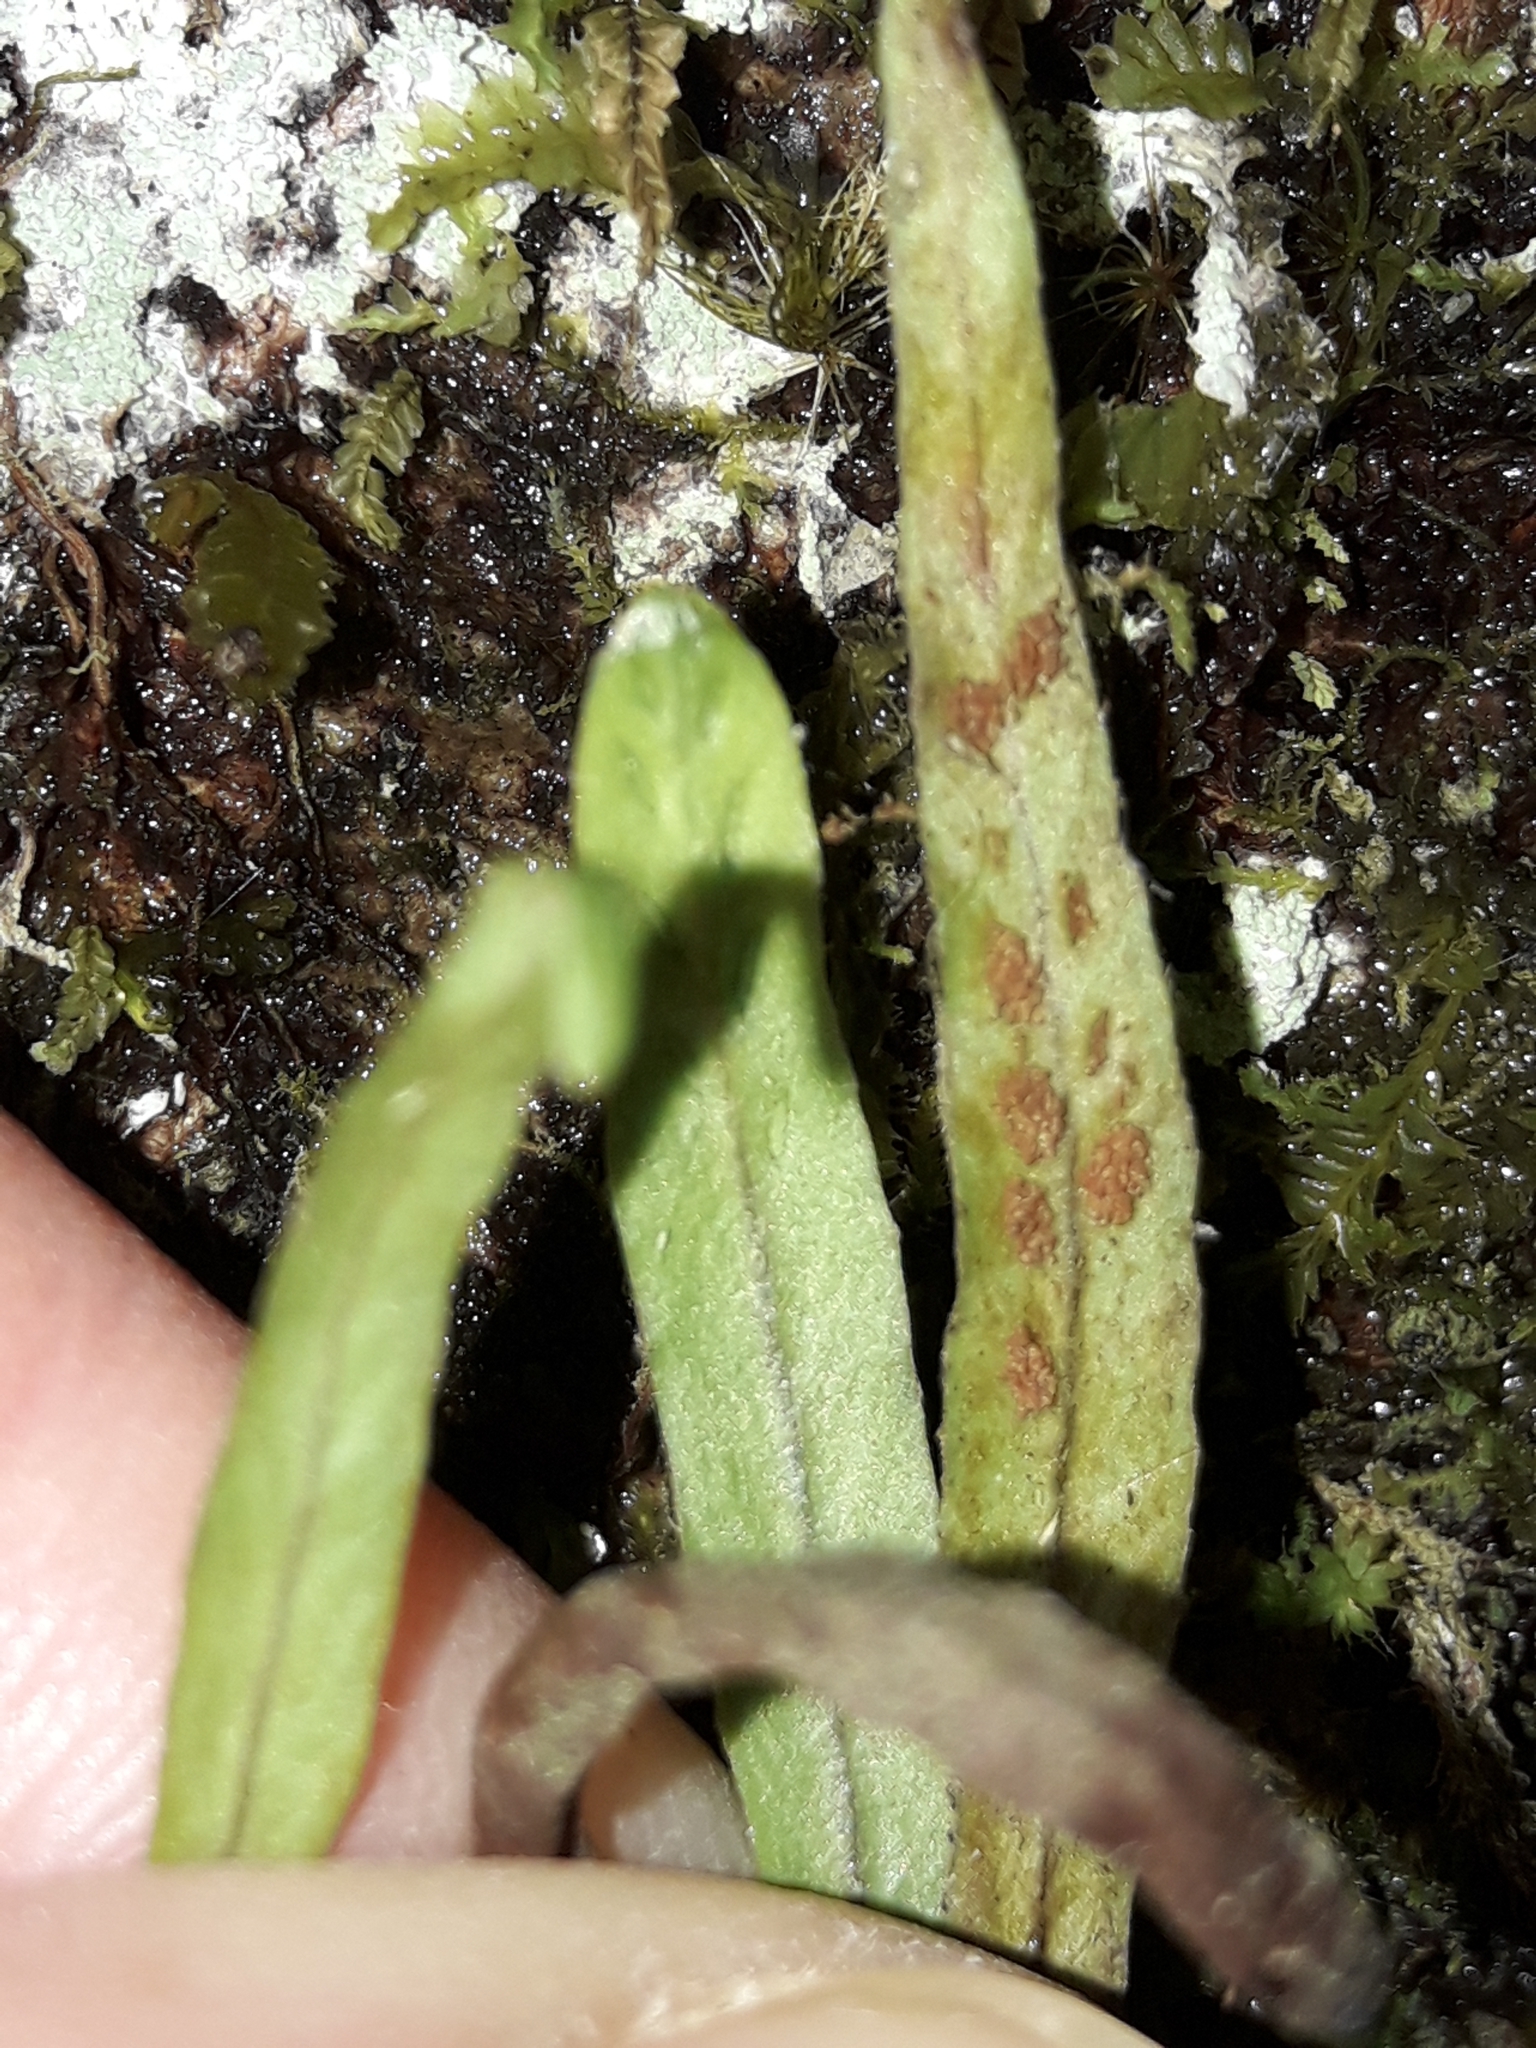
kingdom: Plantae
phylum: Tracheophyta
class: Polypodiopsida
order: Polypodiales
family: Polypodiaceae
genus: Notogrammitis
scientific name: Notogrammitis angustifolia
